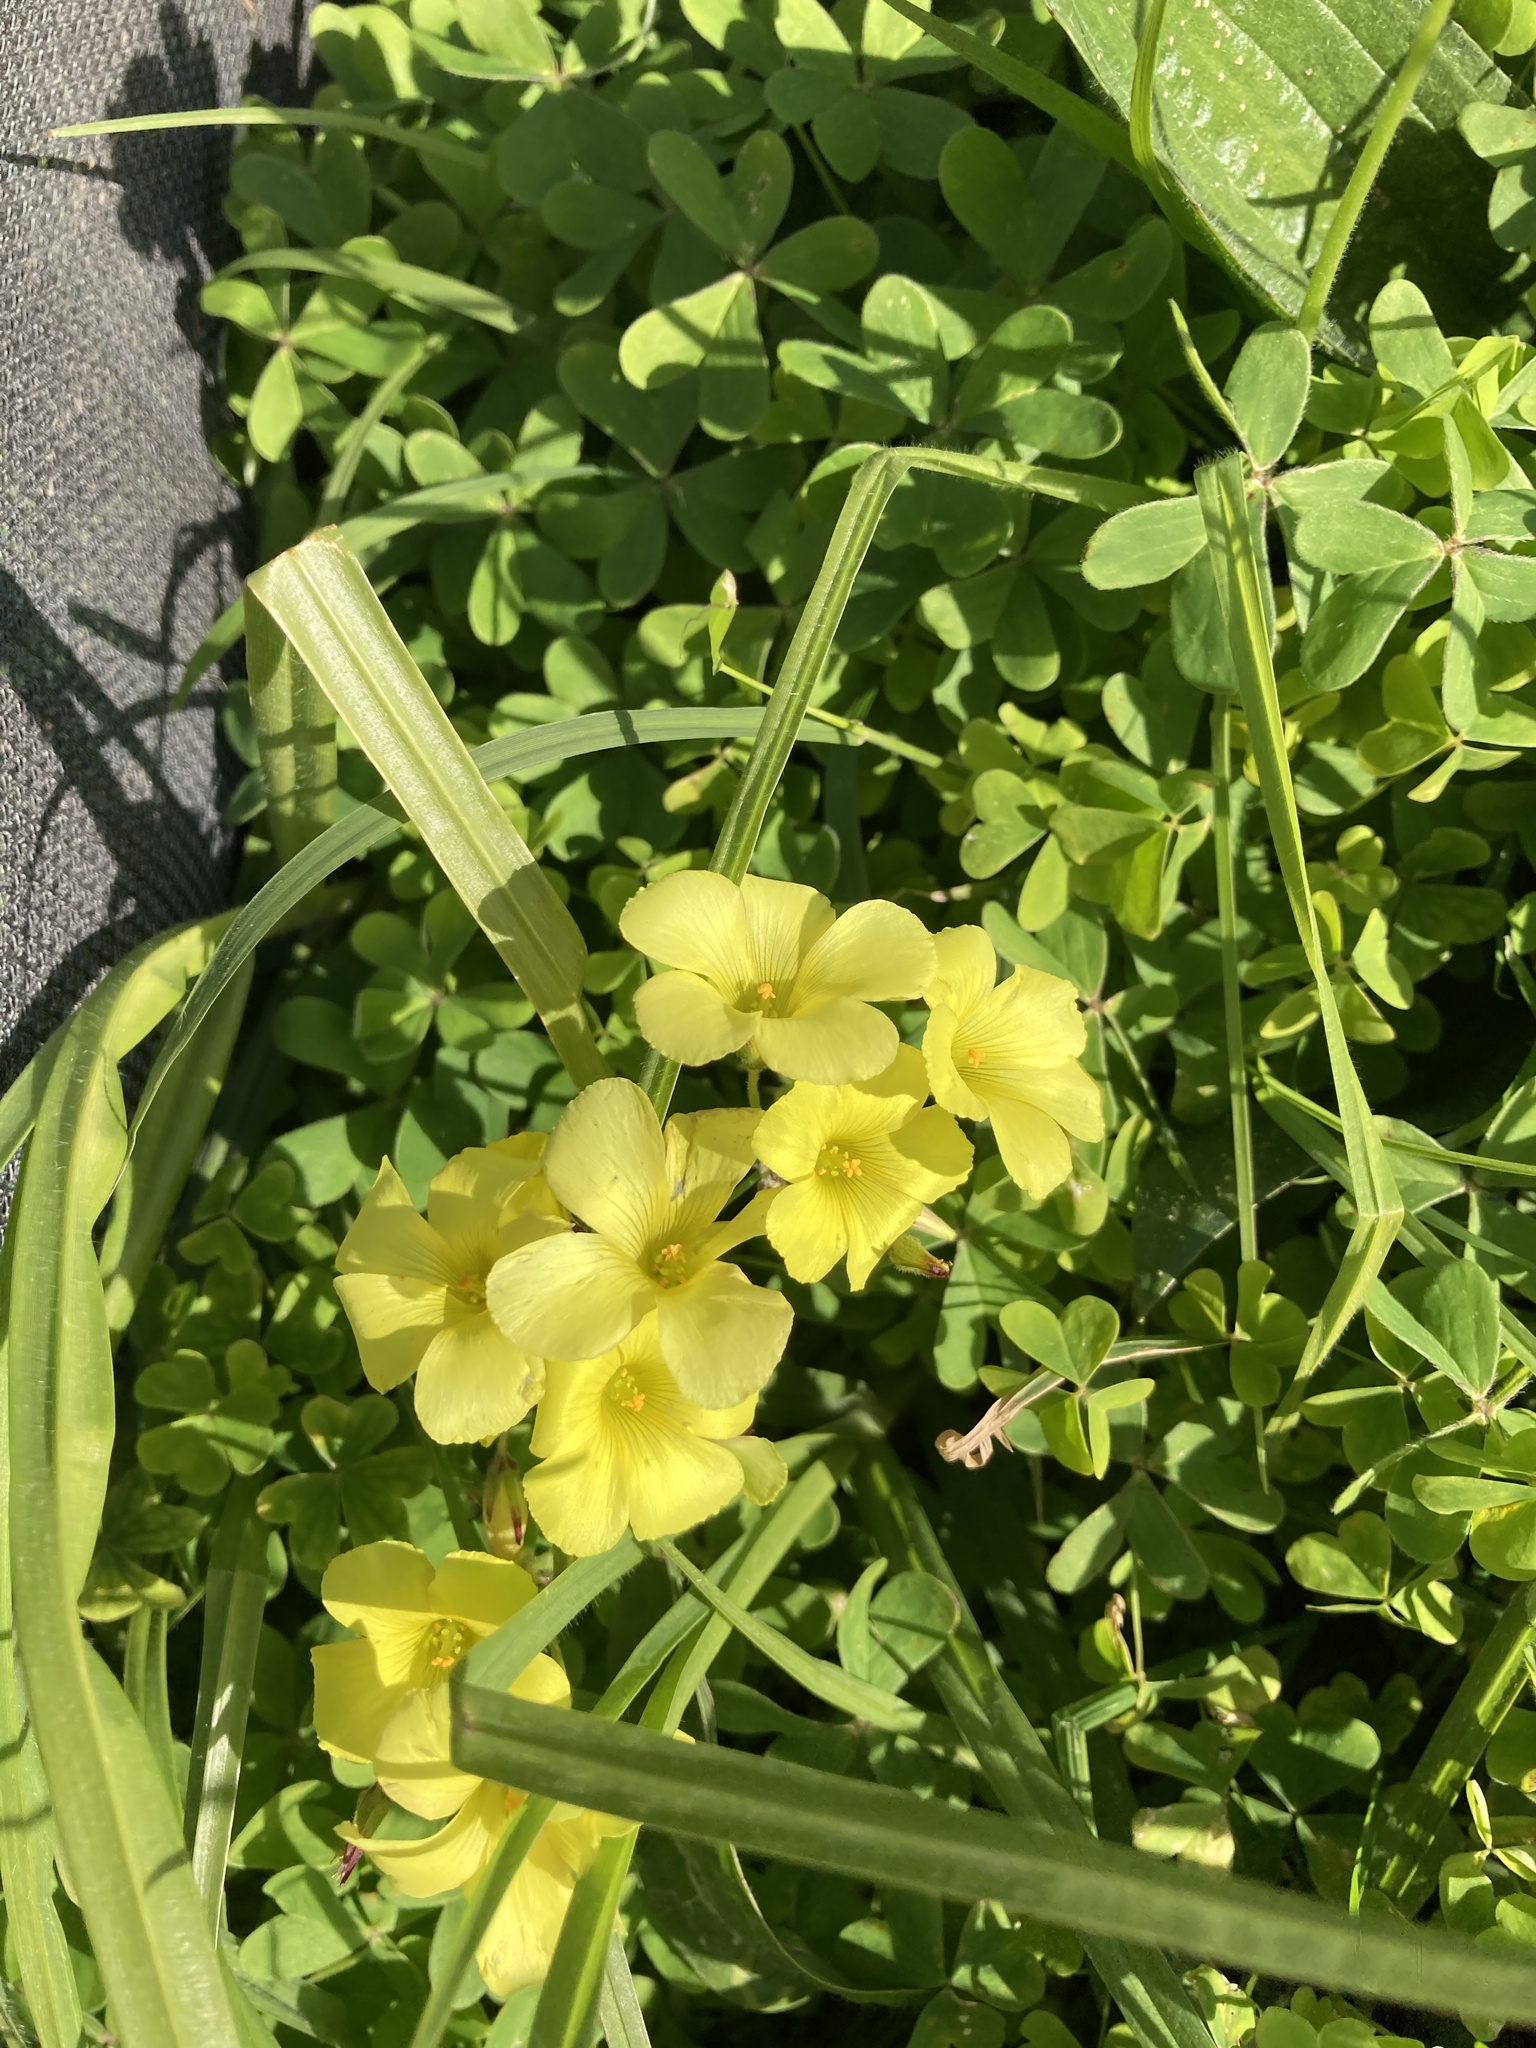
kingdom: Plantae
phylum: Tracheophyta
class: Magnoliopsida
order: Oxalidales
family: Oxalidaceae
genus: Oxalis
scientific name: Oxalis pes-caprae
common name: Bermuda-buttercup
